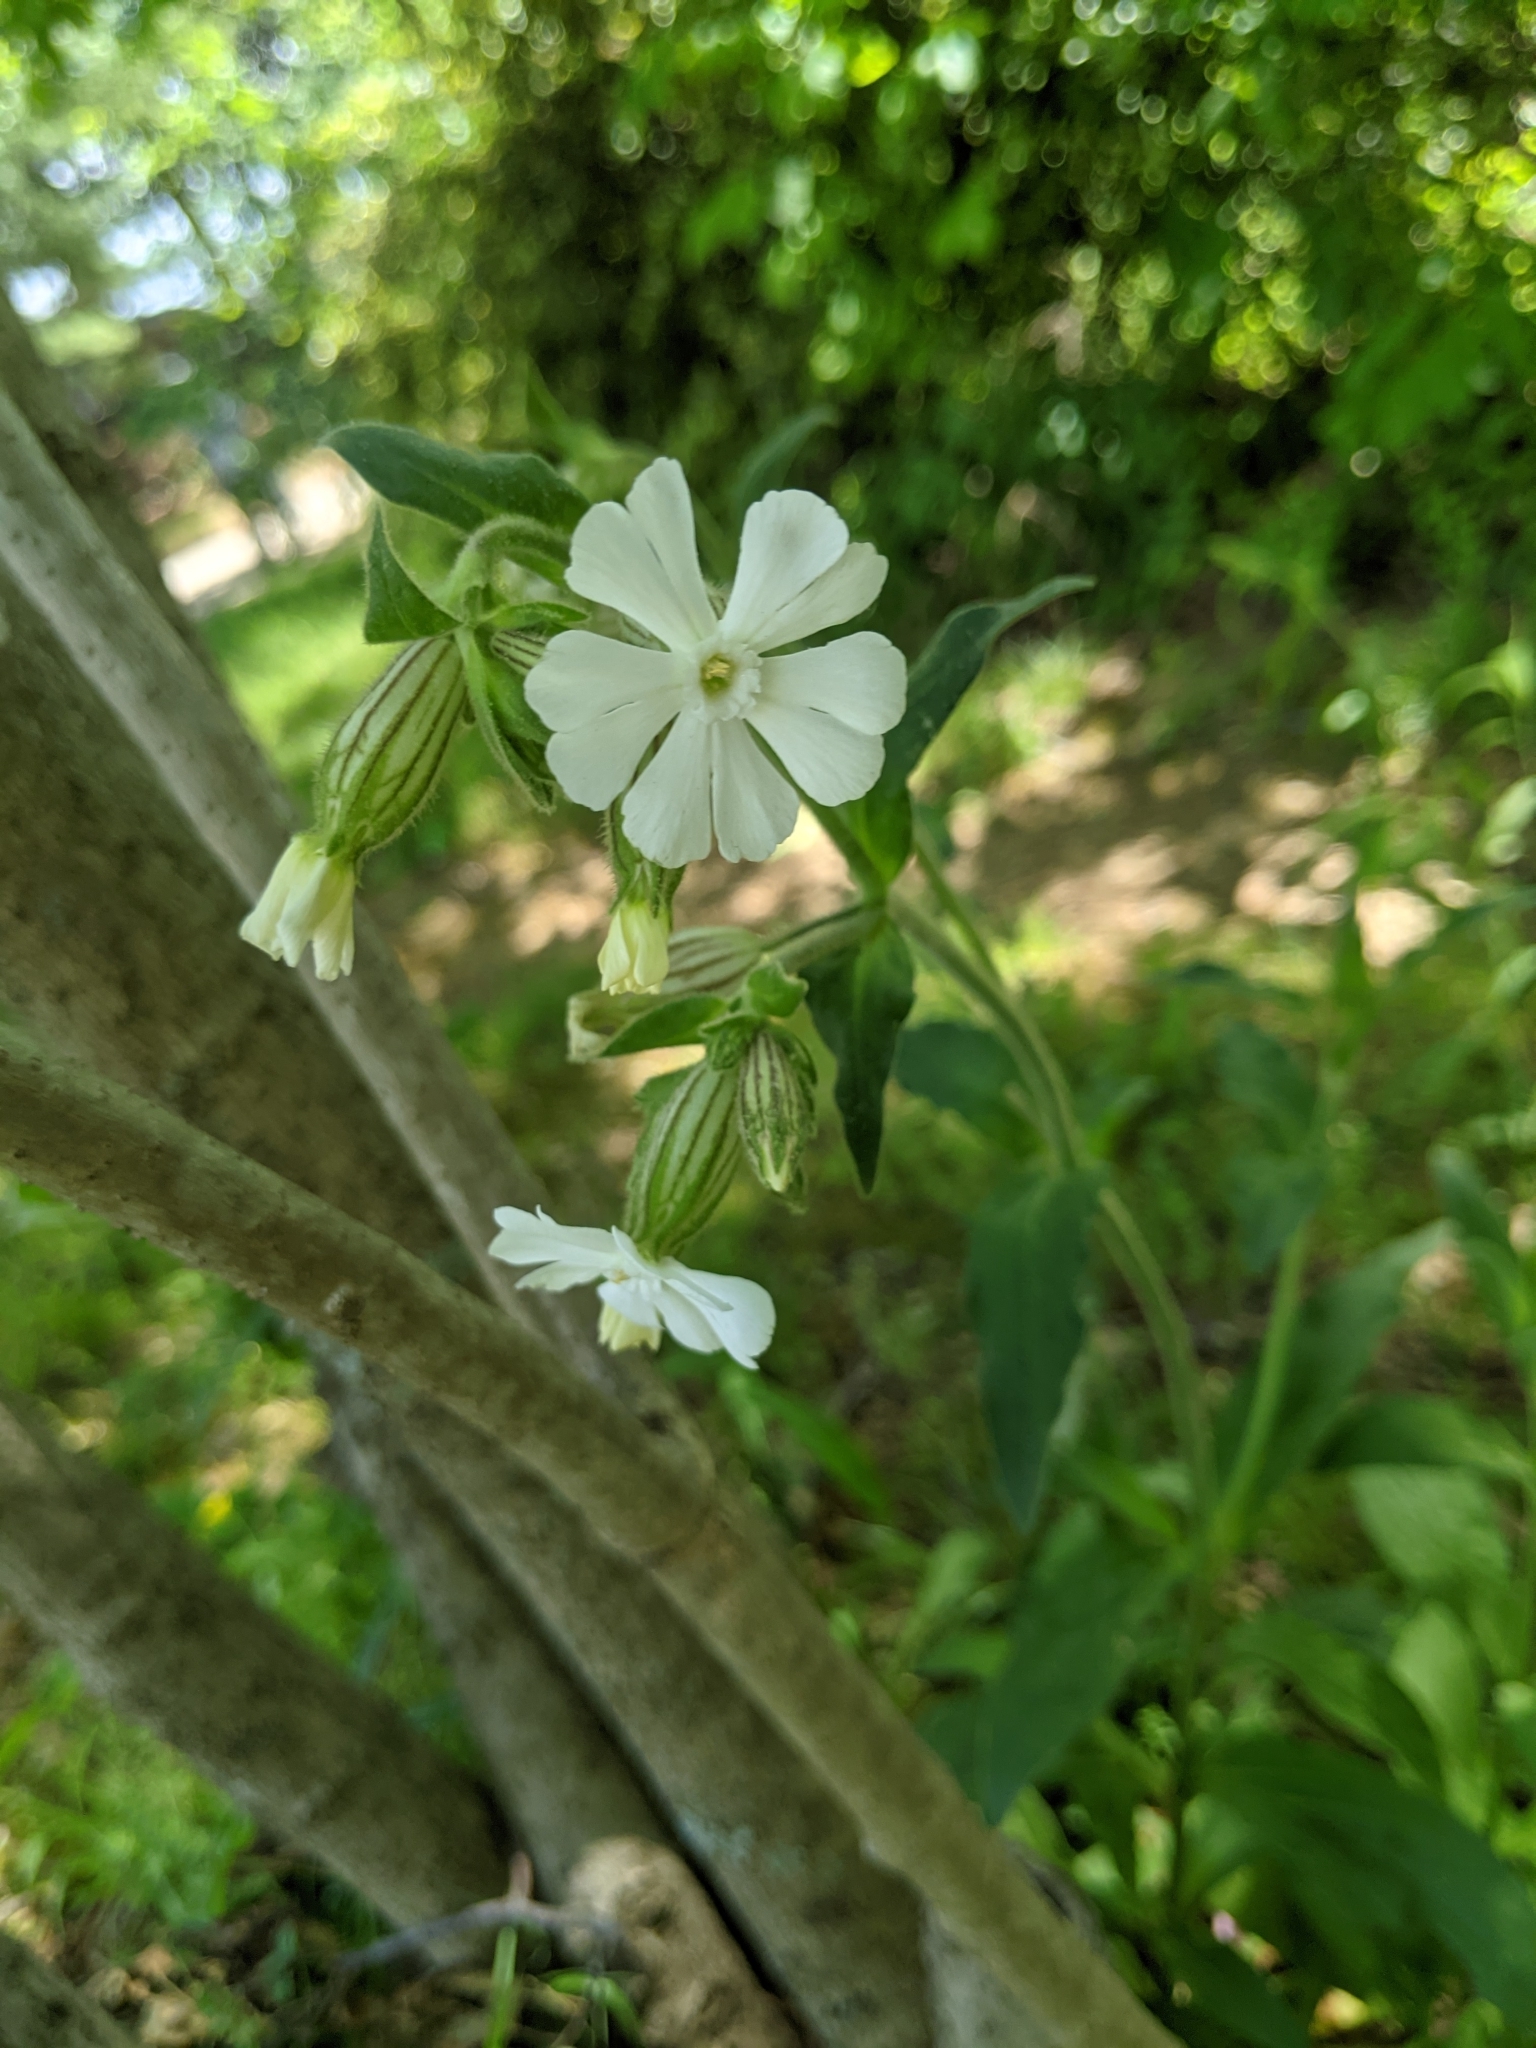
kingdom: Plantae
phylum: Tracheophyta
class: Magnoliopsida
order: Caryophyllales
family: Caryophyllaceae
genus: Silene
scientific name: Silene latifolia
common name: White campion
